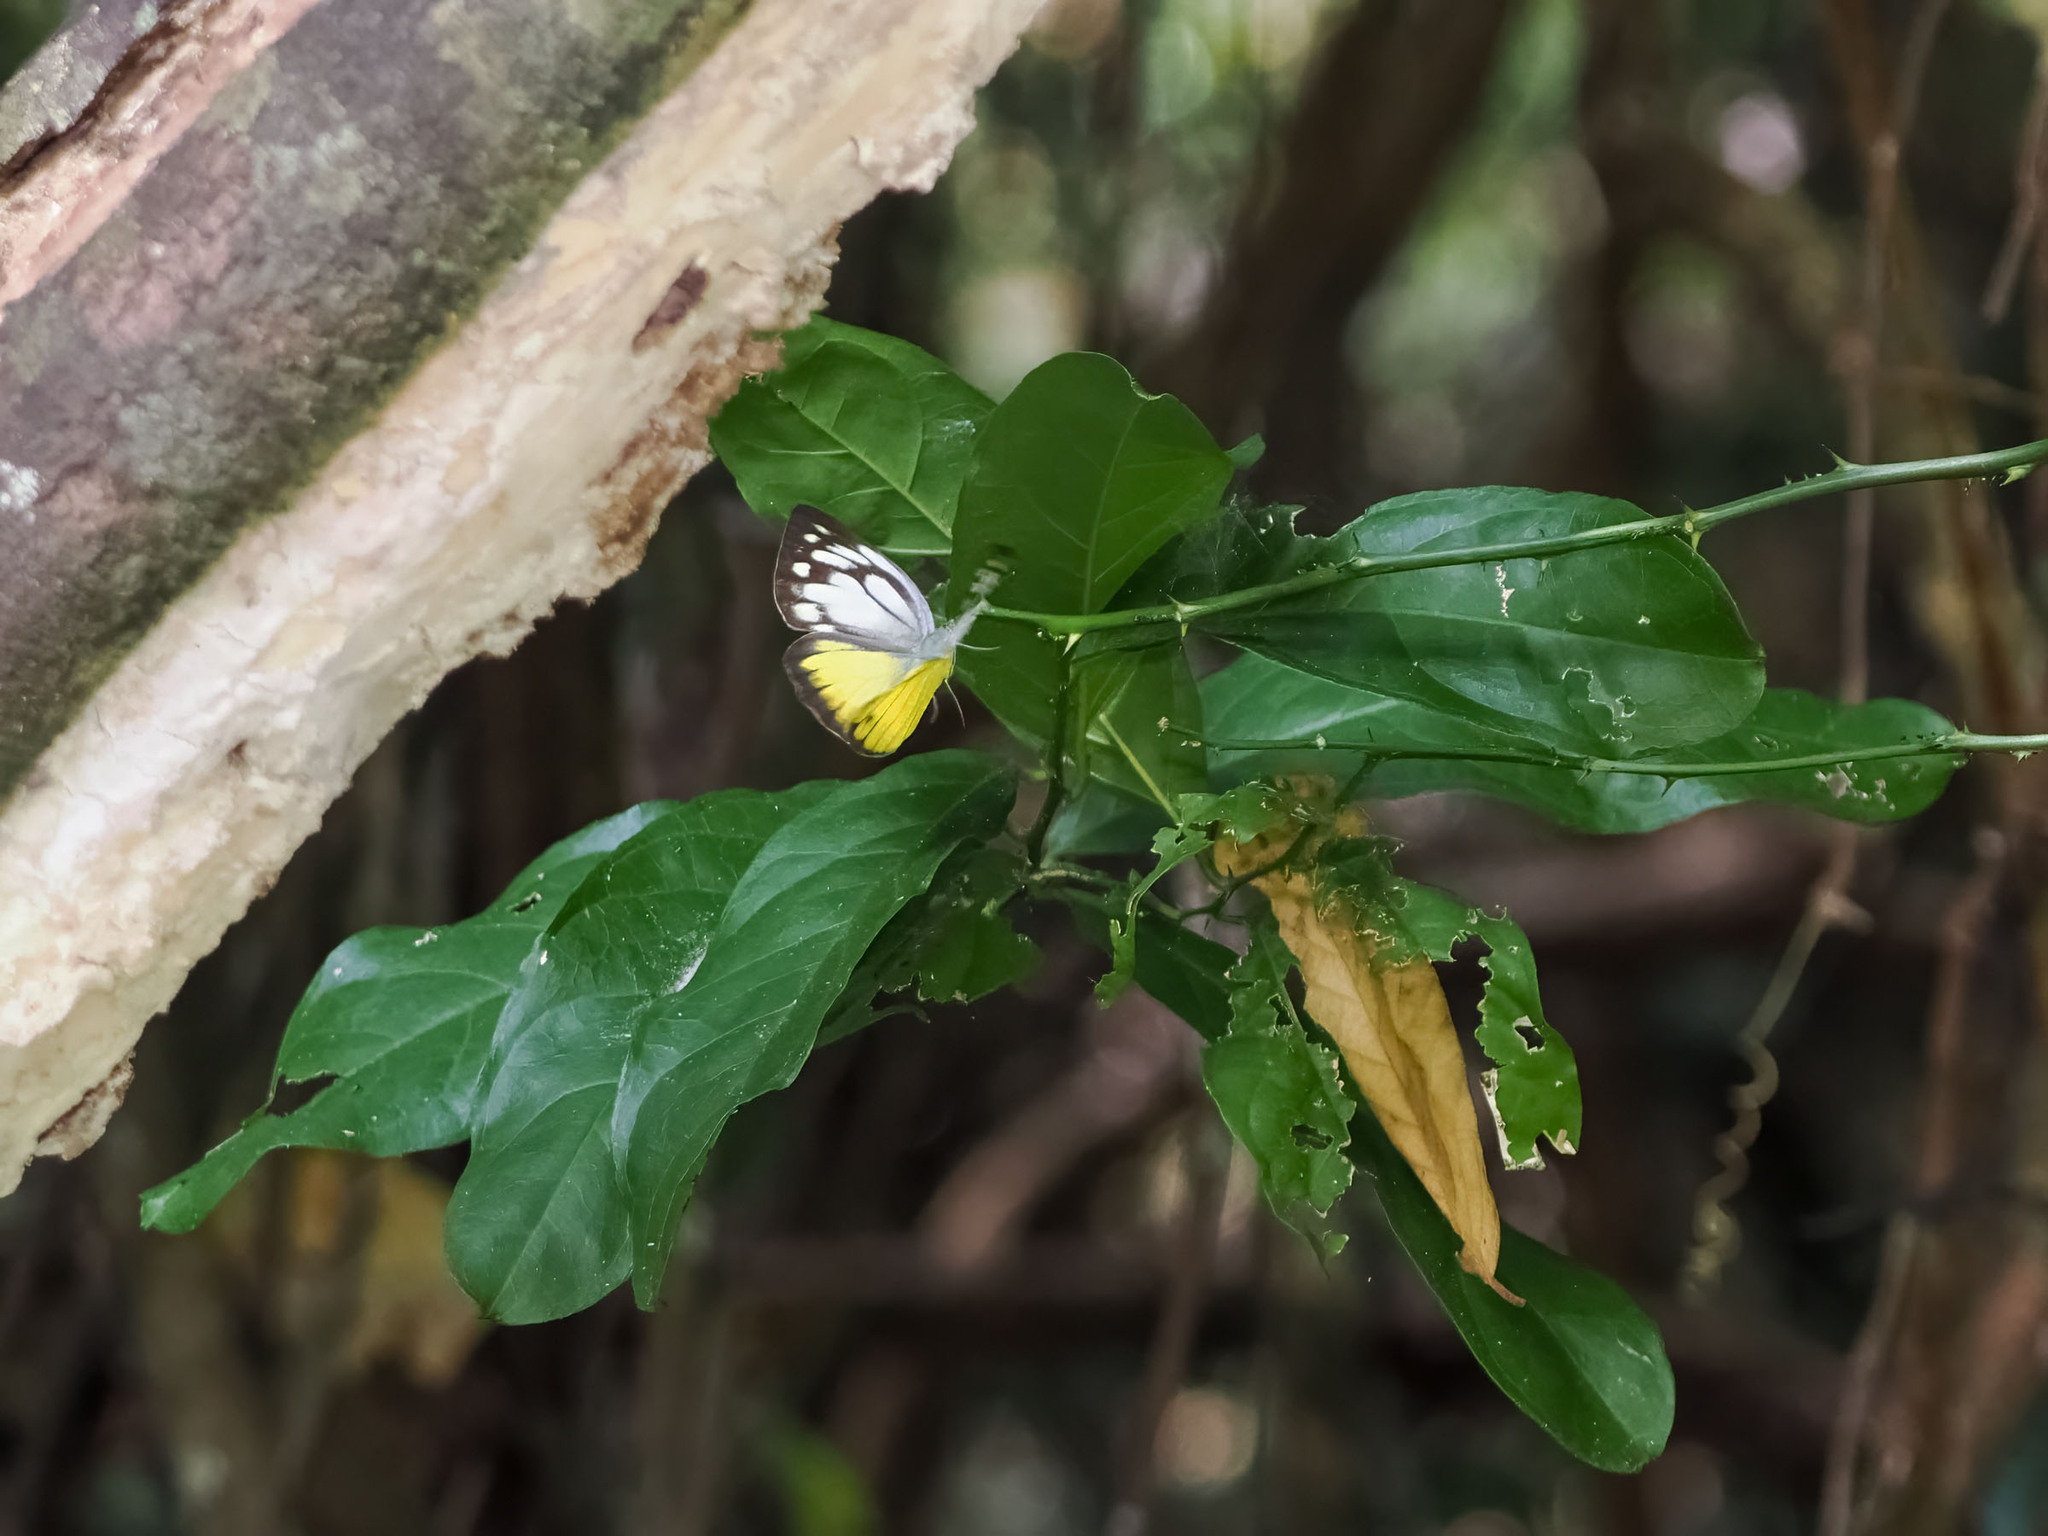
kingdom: Animalia
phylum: Arthropoda
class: Insecta
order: Lepidoptera
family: Pieridae
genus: Cepora
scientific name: Cepora aspasia
